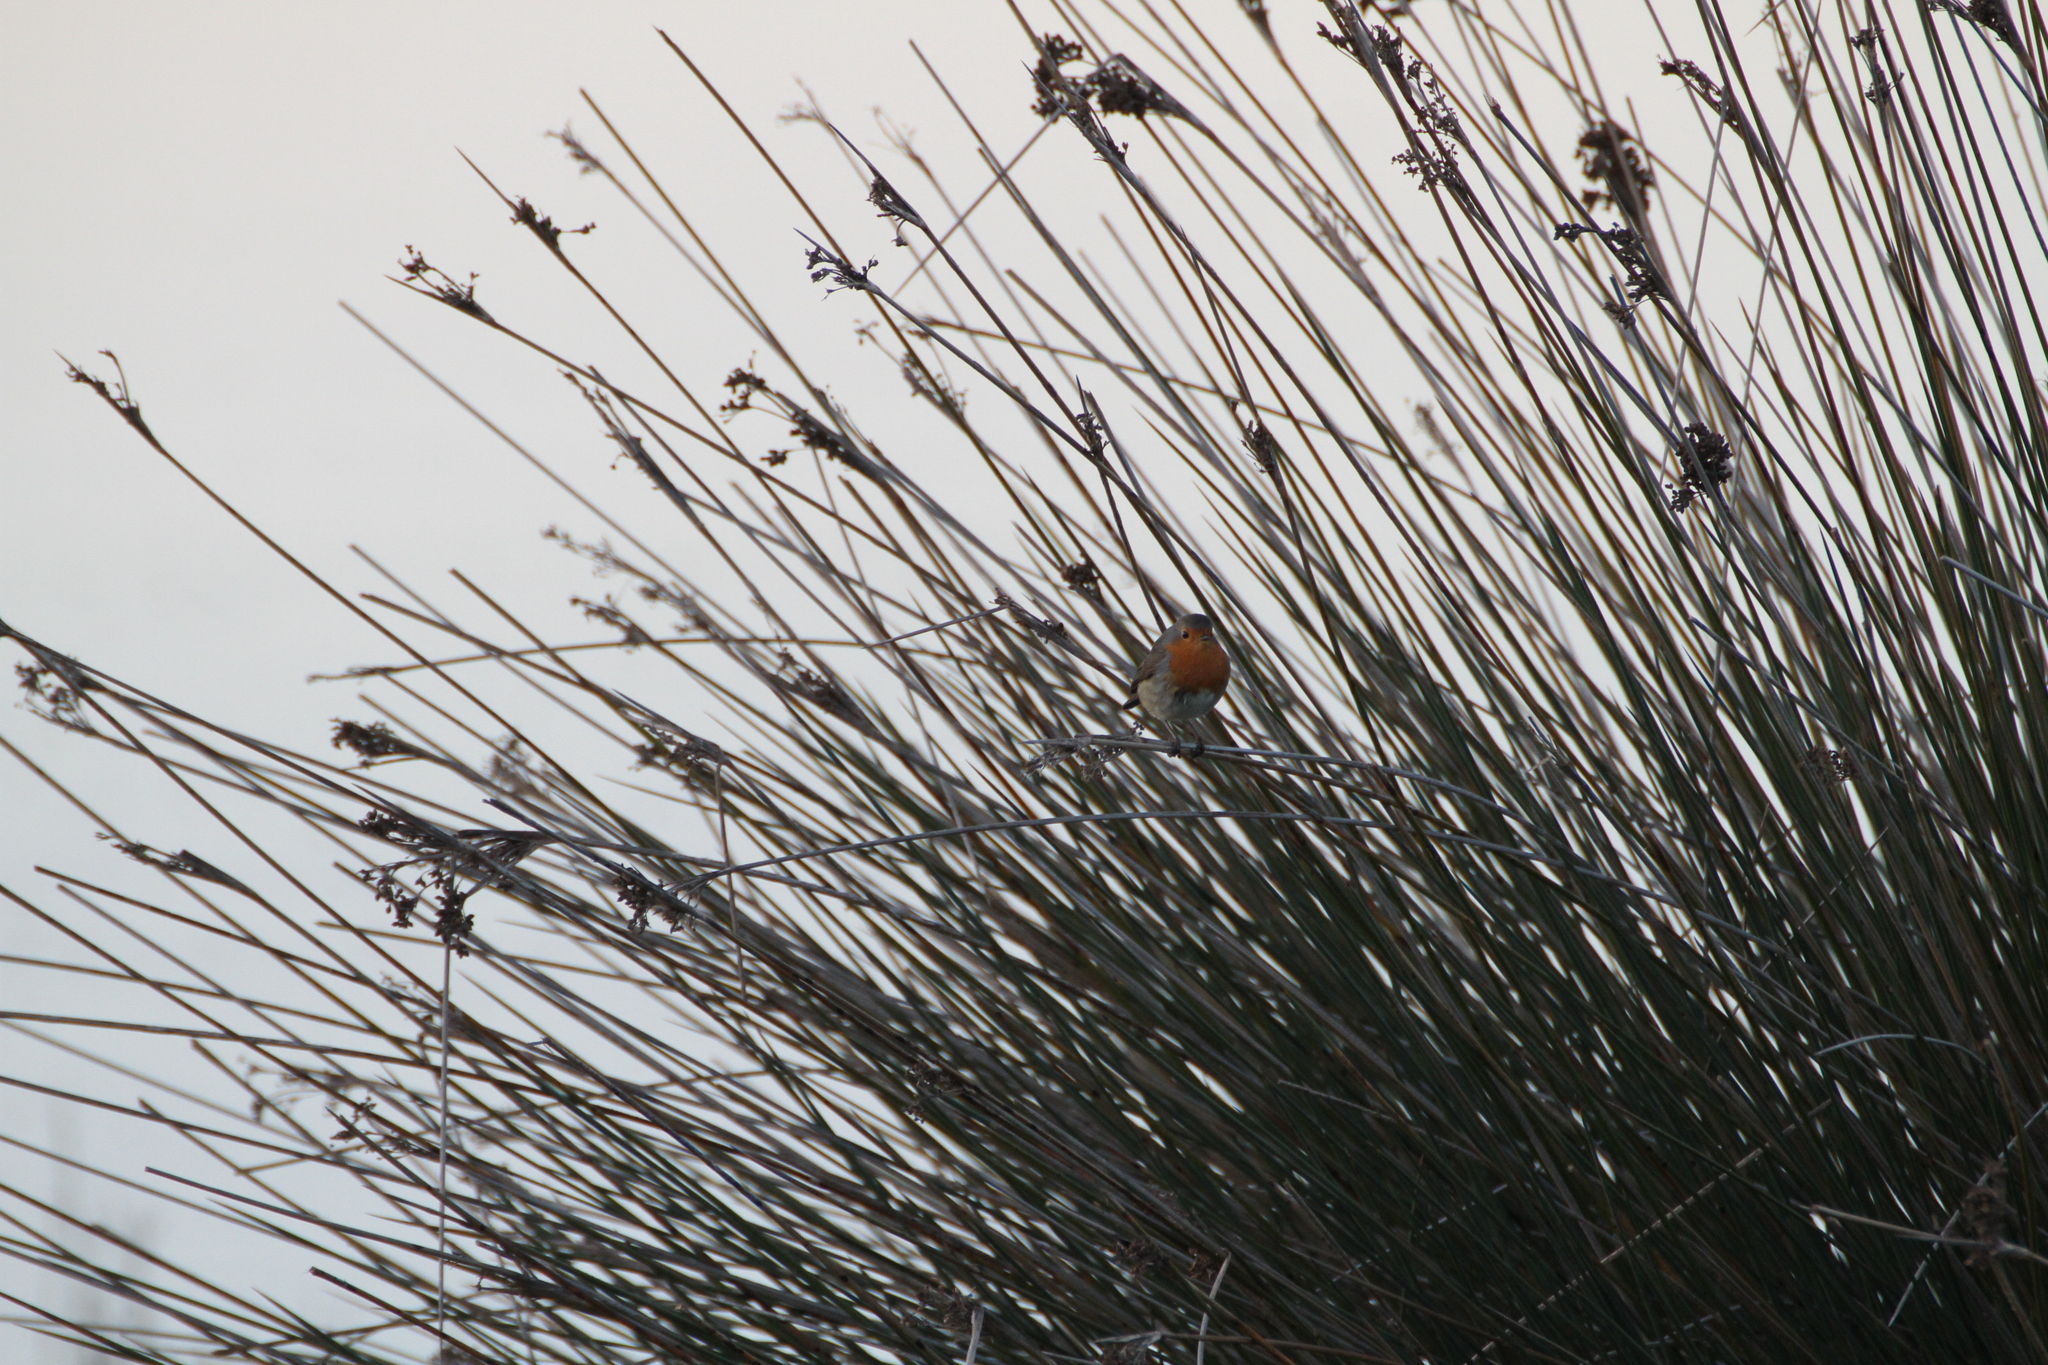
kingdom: Animalia
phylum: Chordata
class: Aves
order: Passeriformes
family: Muscicapidae
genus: Erithacus
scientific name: Erithacus rubecula
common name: European robin
